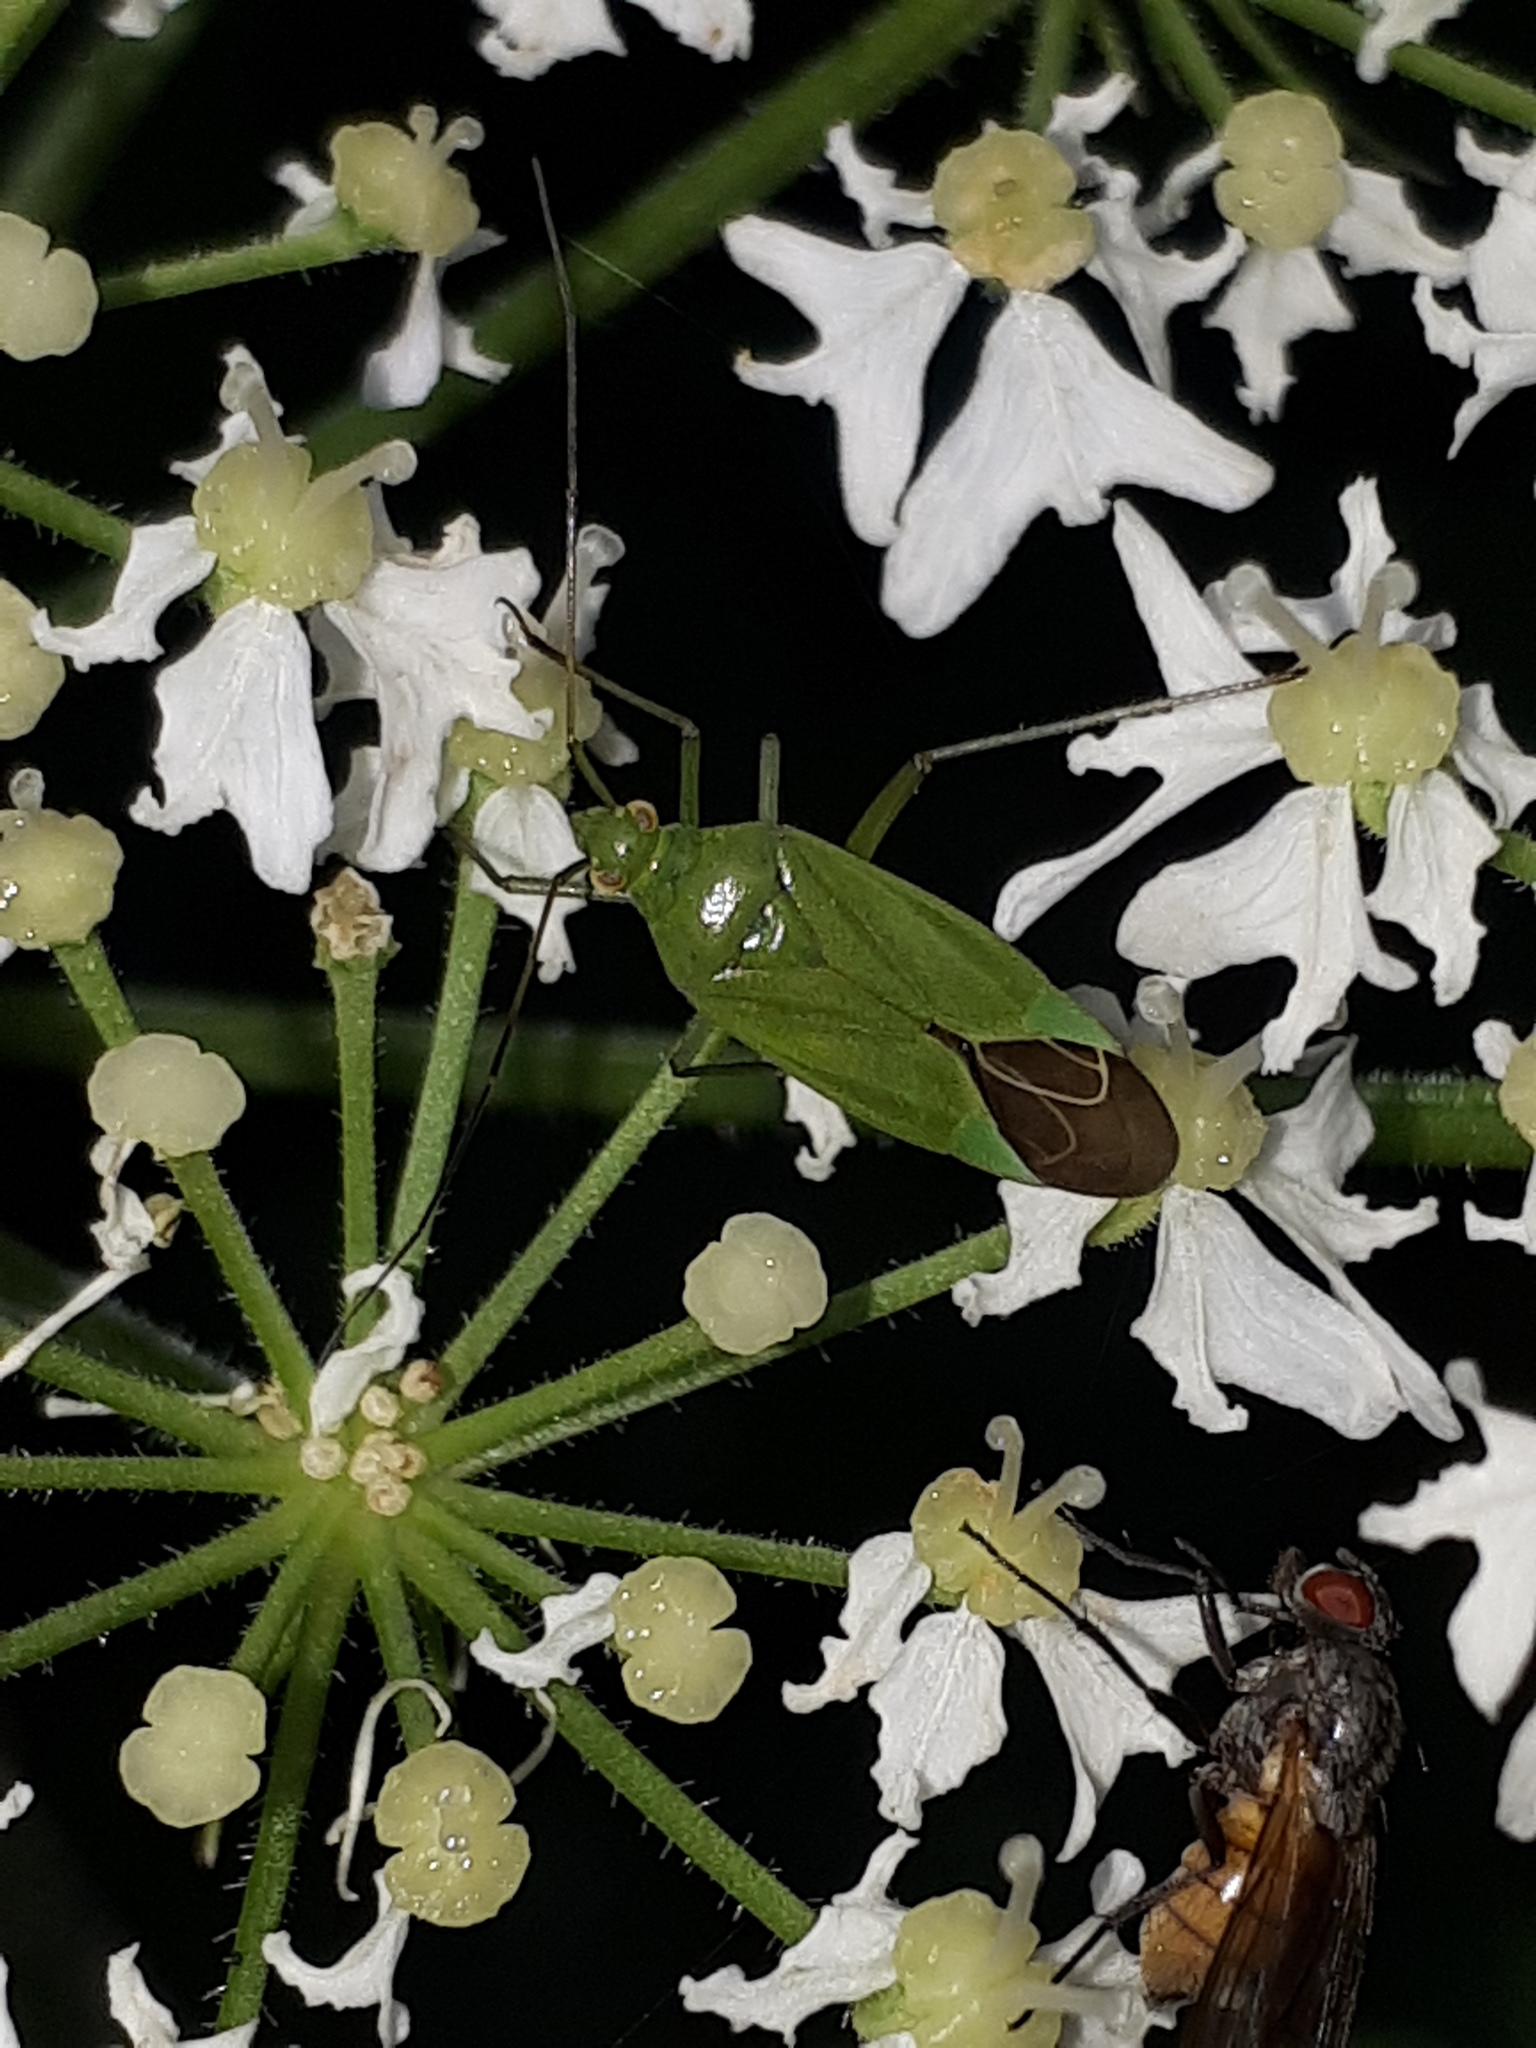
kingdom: Animalia
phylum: Arthropoda
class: Insecta
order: Hemiptera
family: Miridae
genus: Calocoris
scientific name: Calocoris affinis
